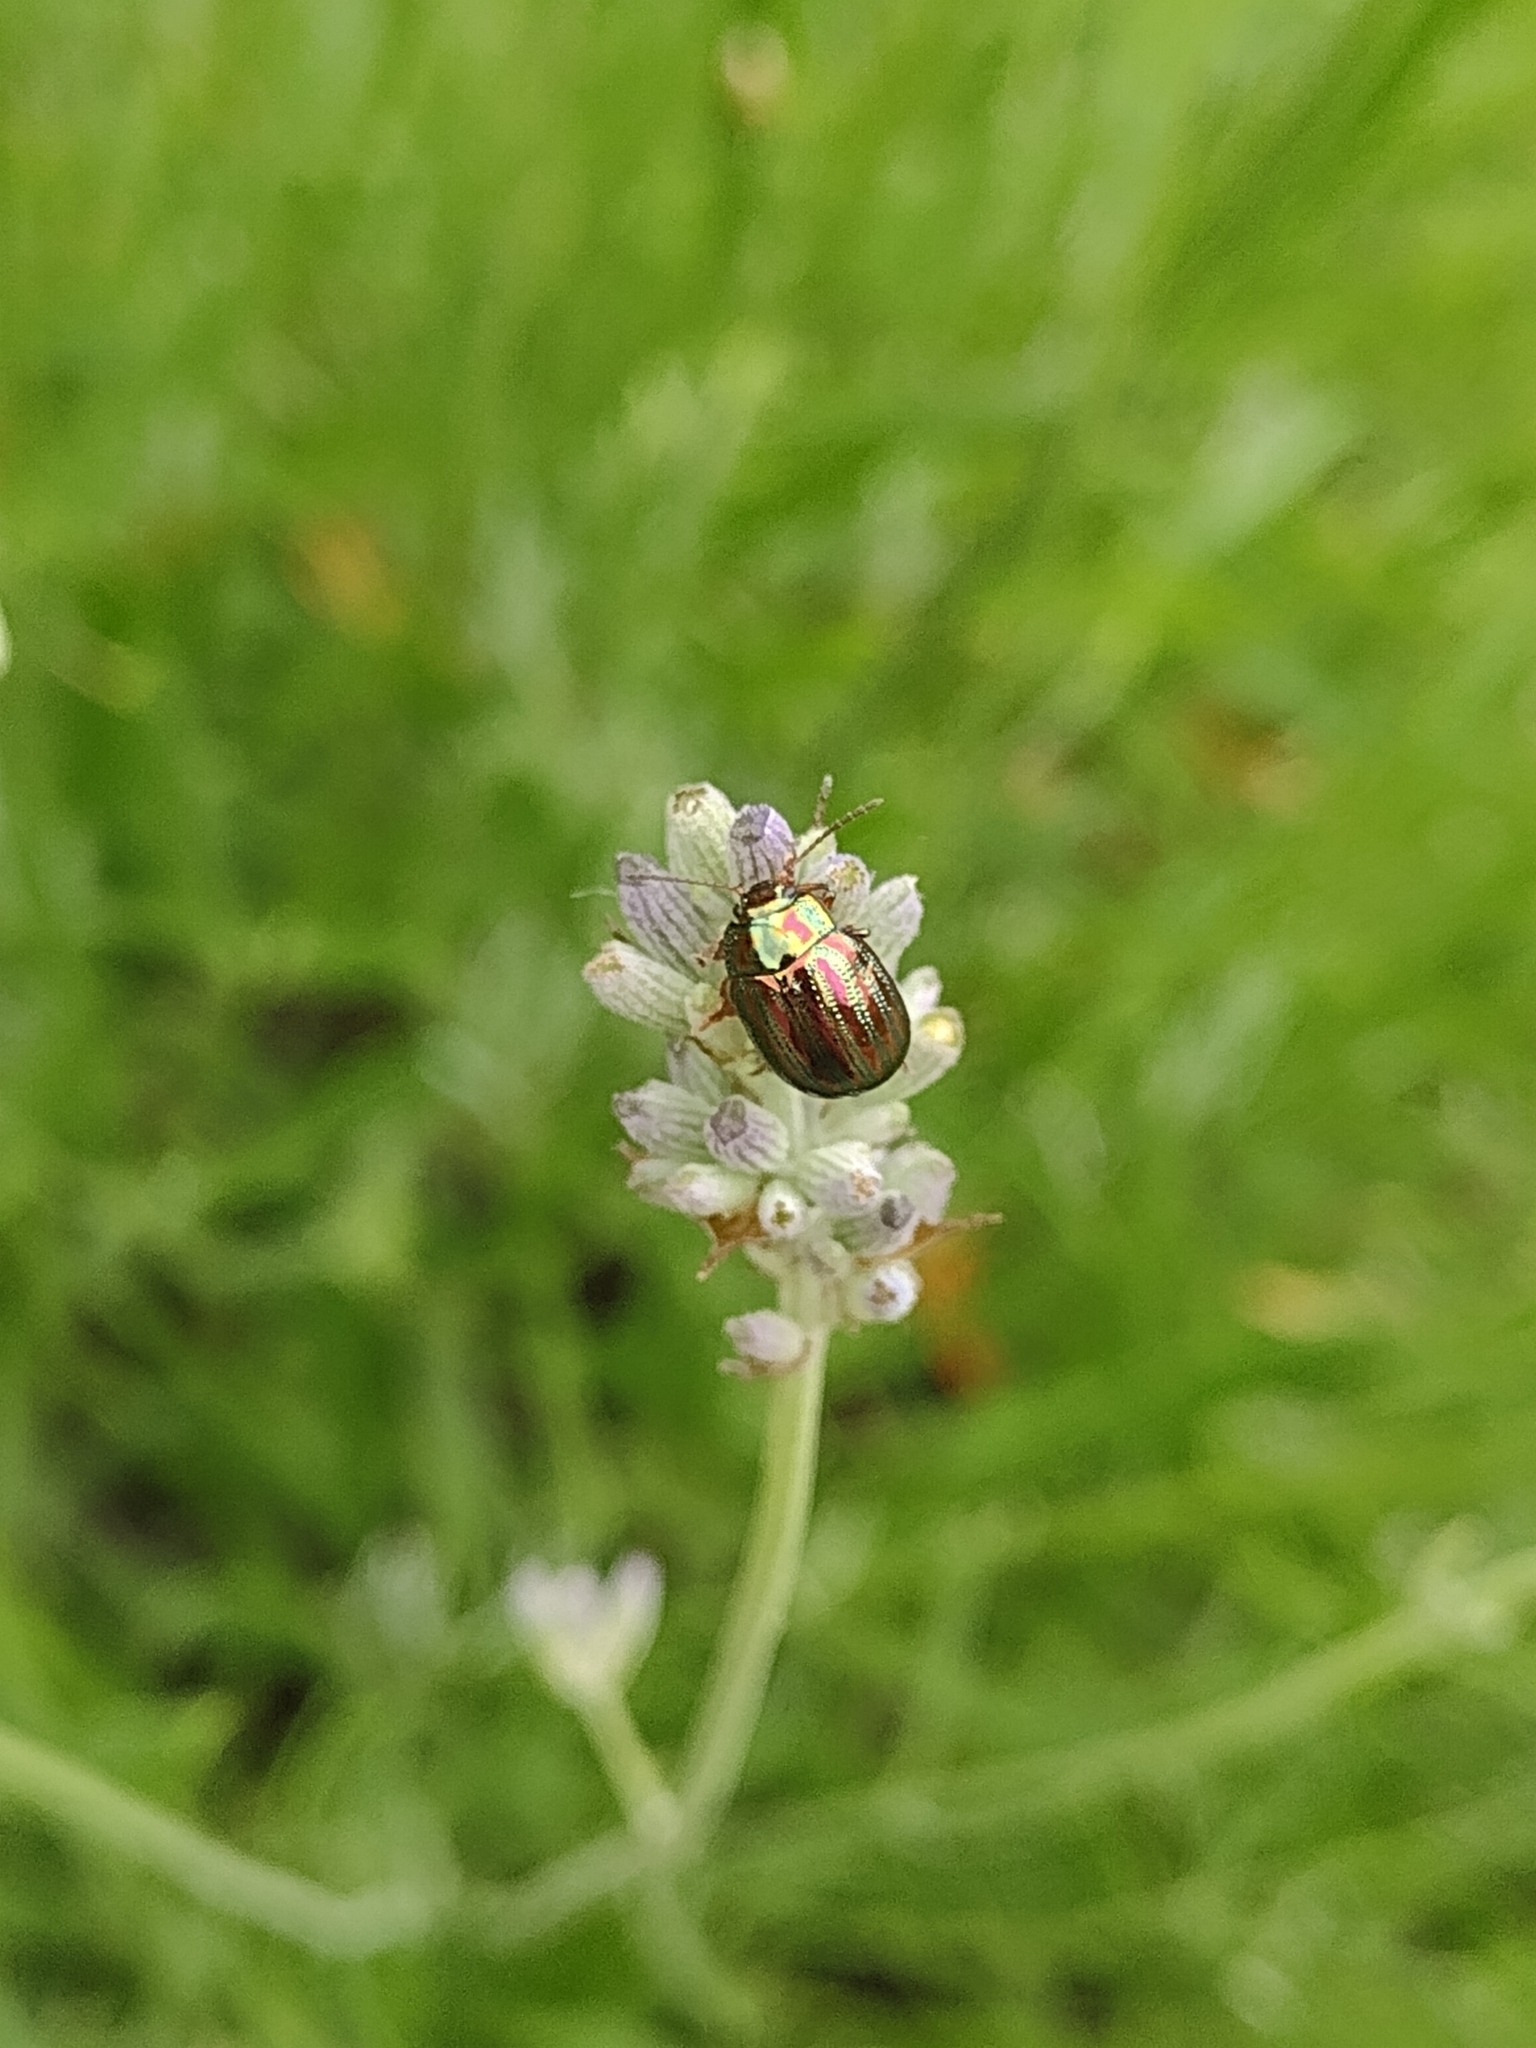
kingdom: Animalia
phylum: Arthropoda
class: Insecta
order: Coleoptera
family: Chrysomelidae
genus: Chrysolina
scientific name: Chrysolina americana
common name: Rosemary beetle
